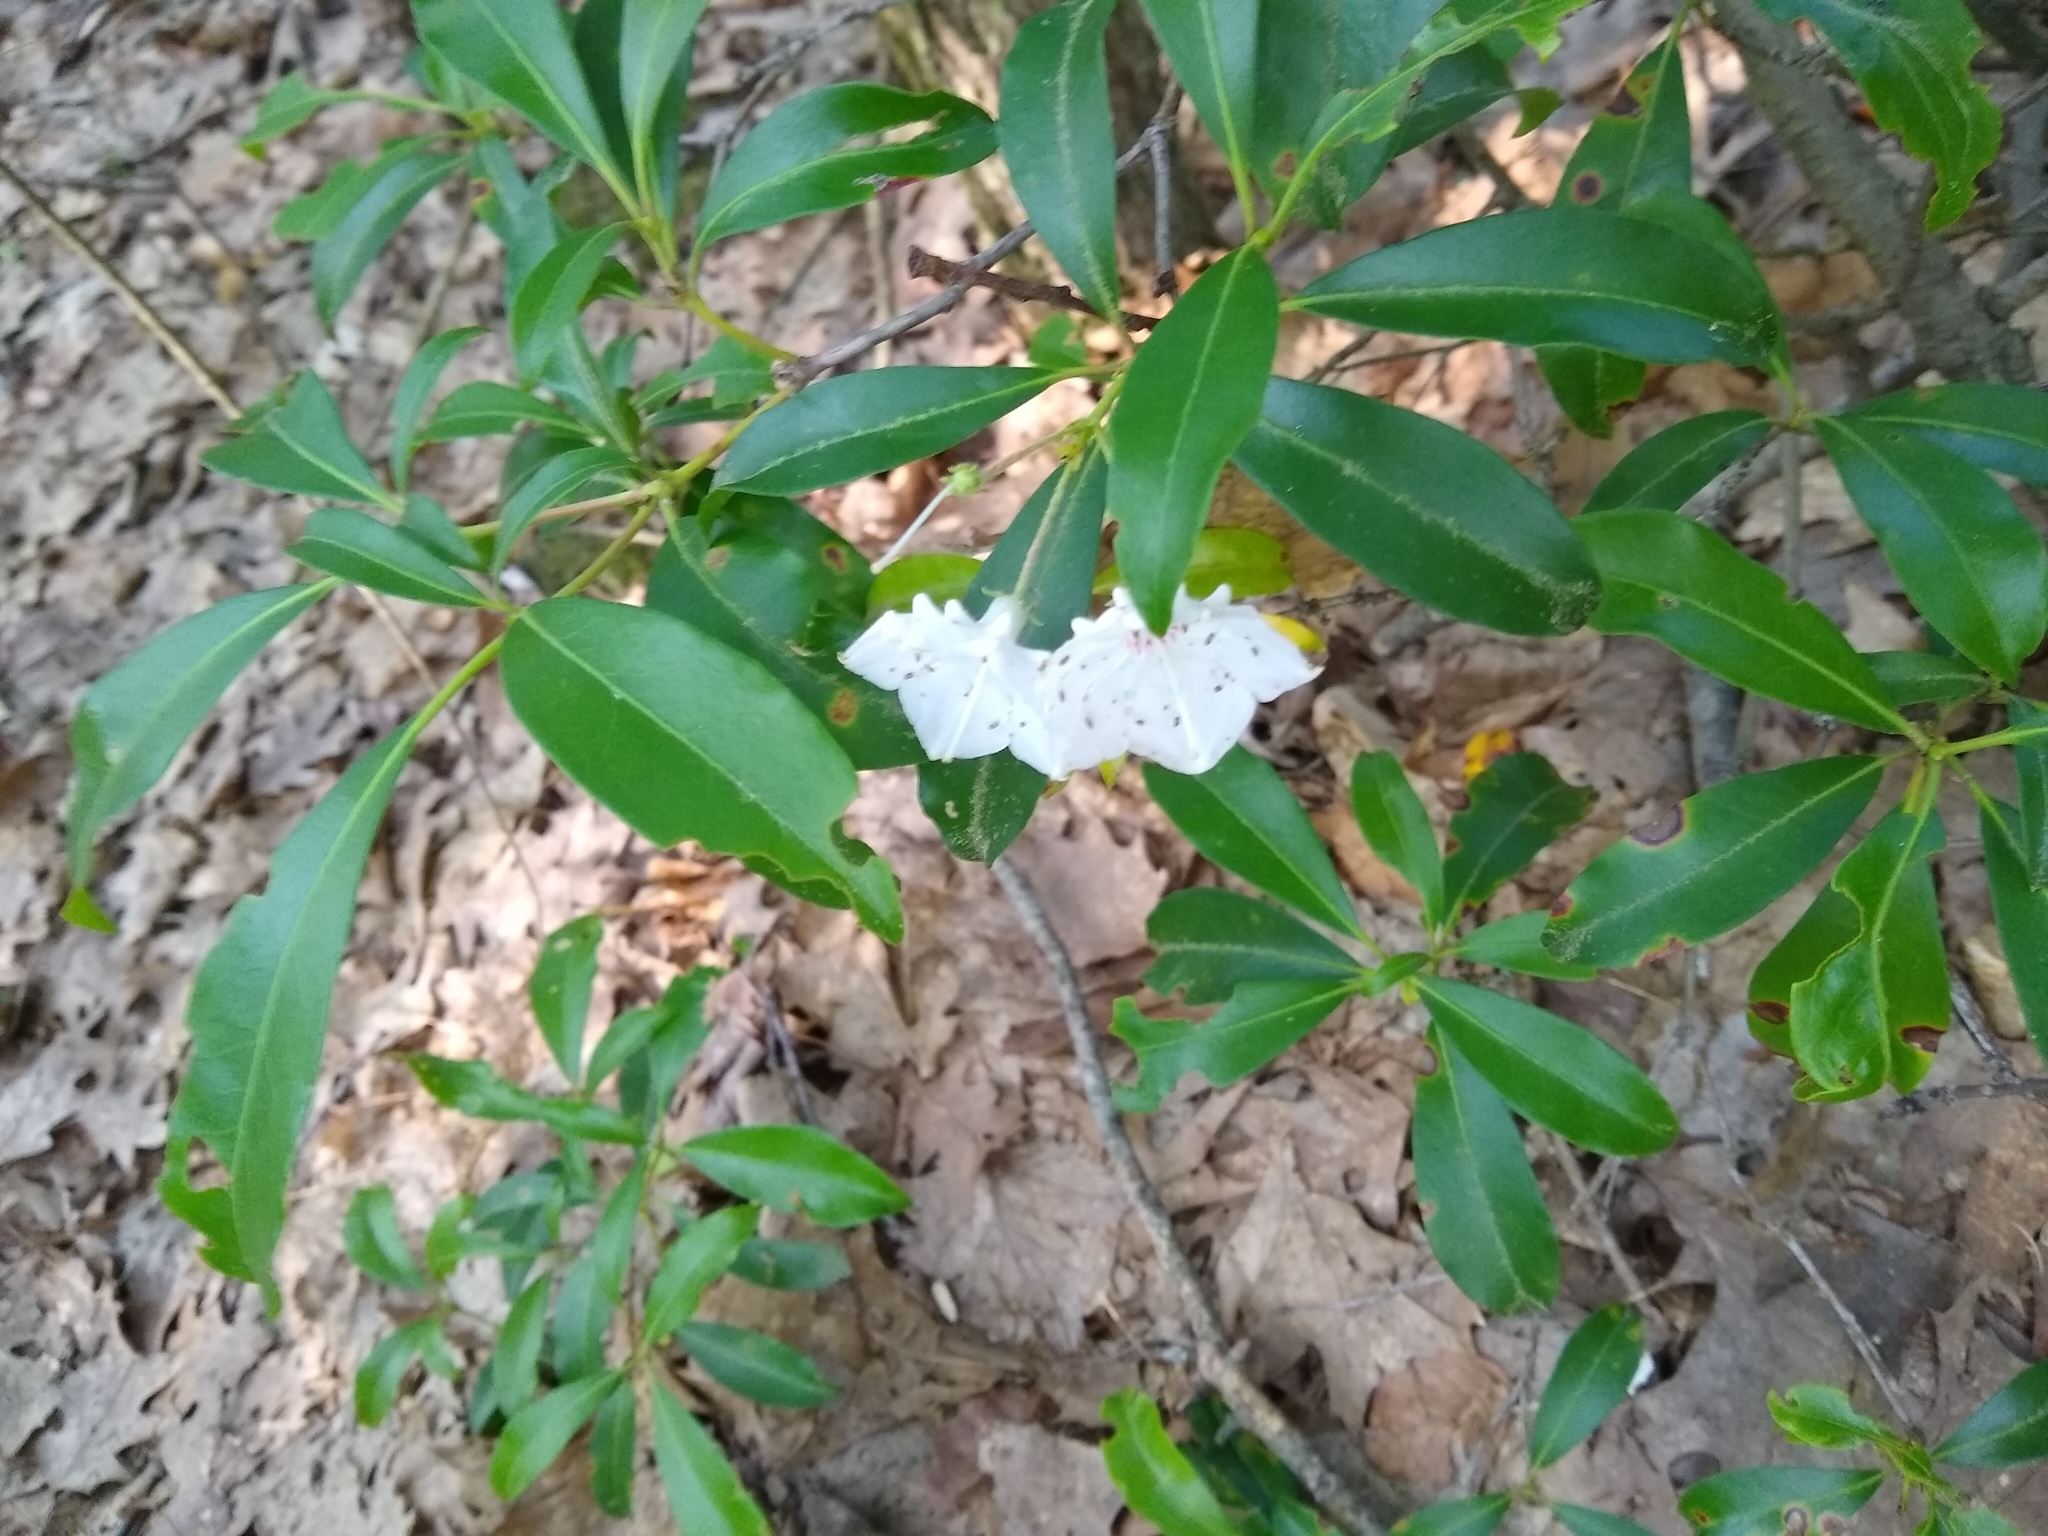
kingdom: Plantae
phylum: Tracheophyta
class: Magnoliopsida
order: Ericales
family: Ericaceae
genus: Kalmia
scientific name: Kalmia latifolia
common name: Mountain-laurel
